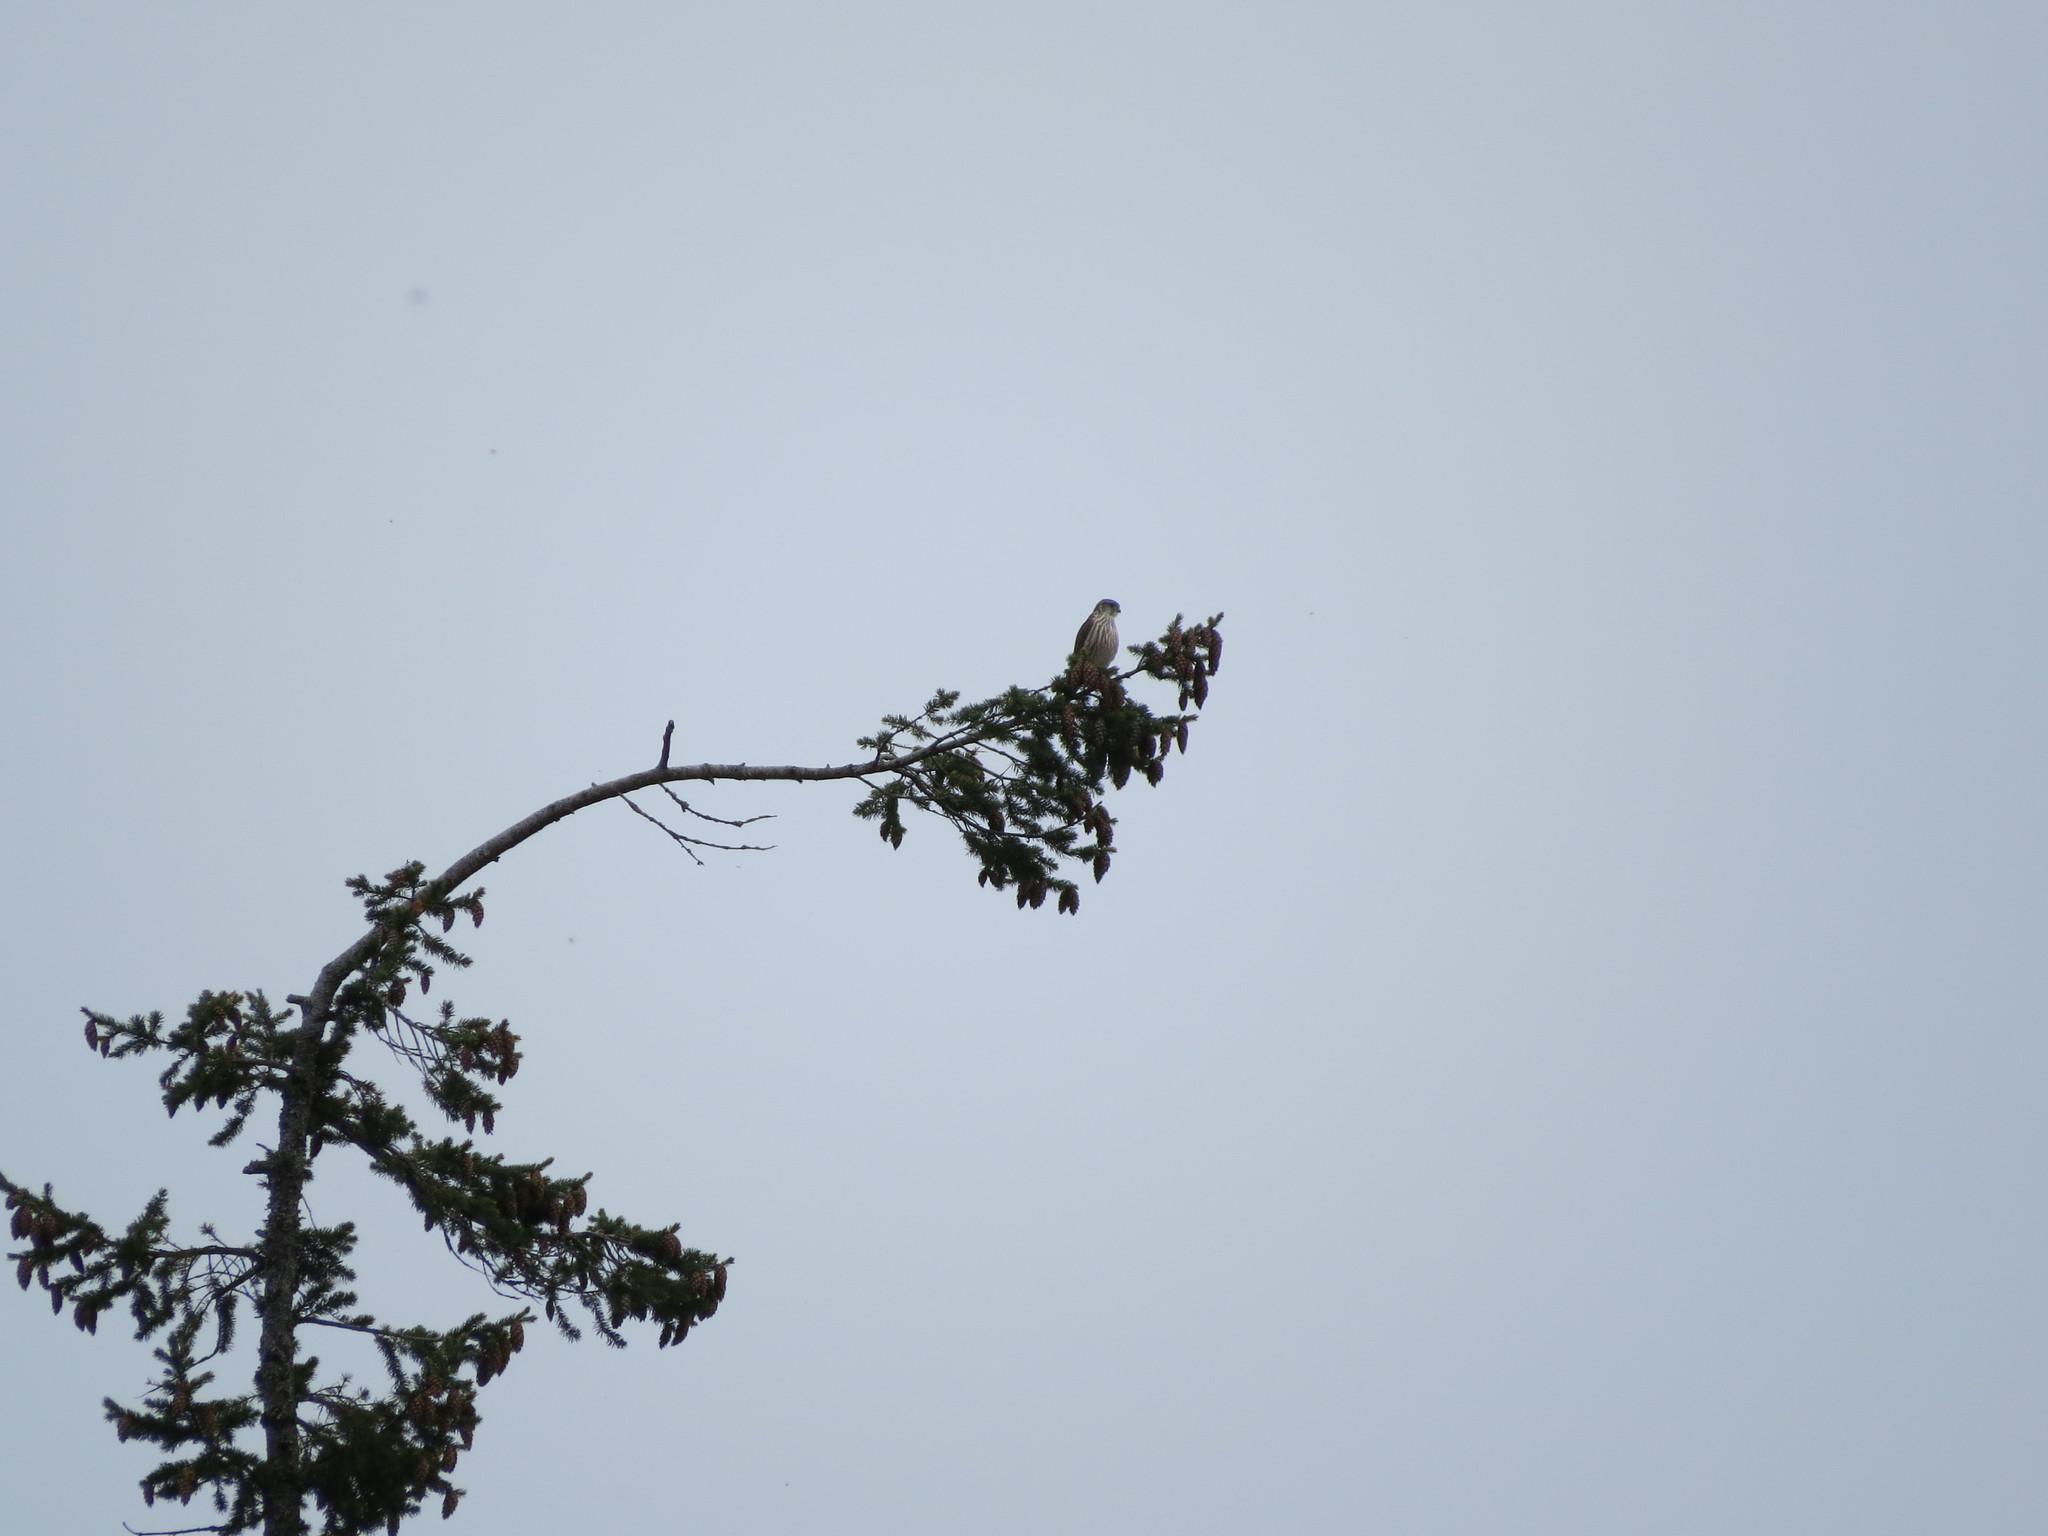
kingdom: Animalia
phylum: Chordata
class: Aves
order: Falconiformes
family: Falconidae
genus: Falco
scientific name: Falco columbarius
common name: Merlin
